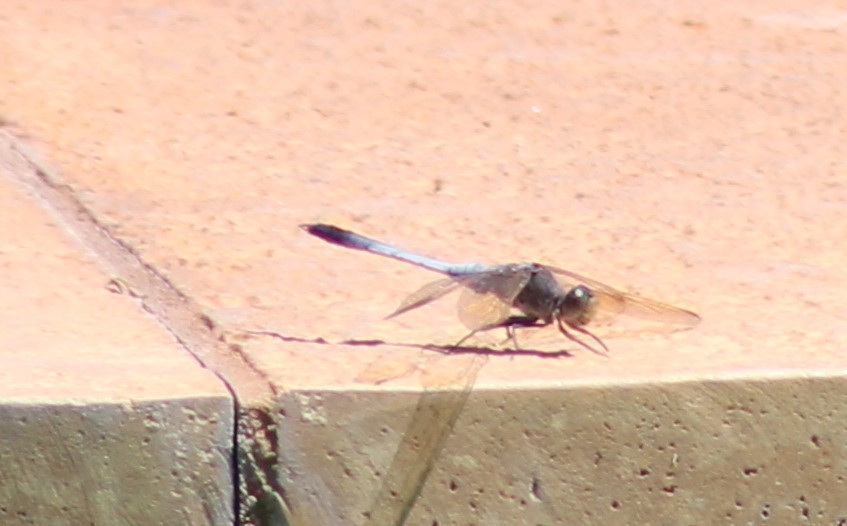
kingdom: Animalia
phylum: Arthropoda
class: Insecta
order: Odonata
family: Libellulidae
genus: Orthetrum
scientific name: Orthetrum caledonicum
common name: Blue skimmer
